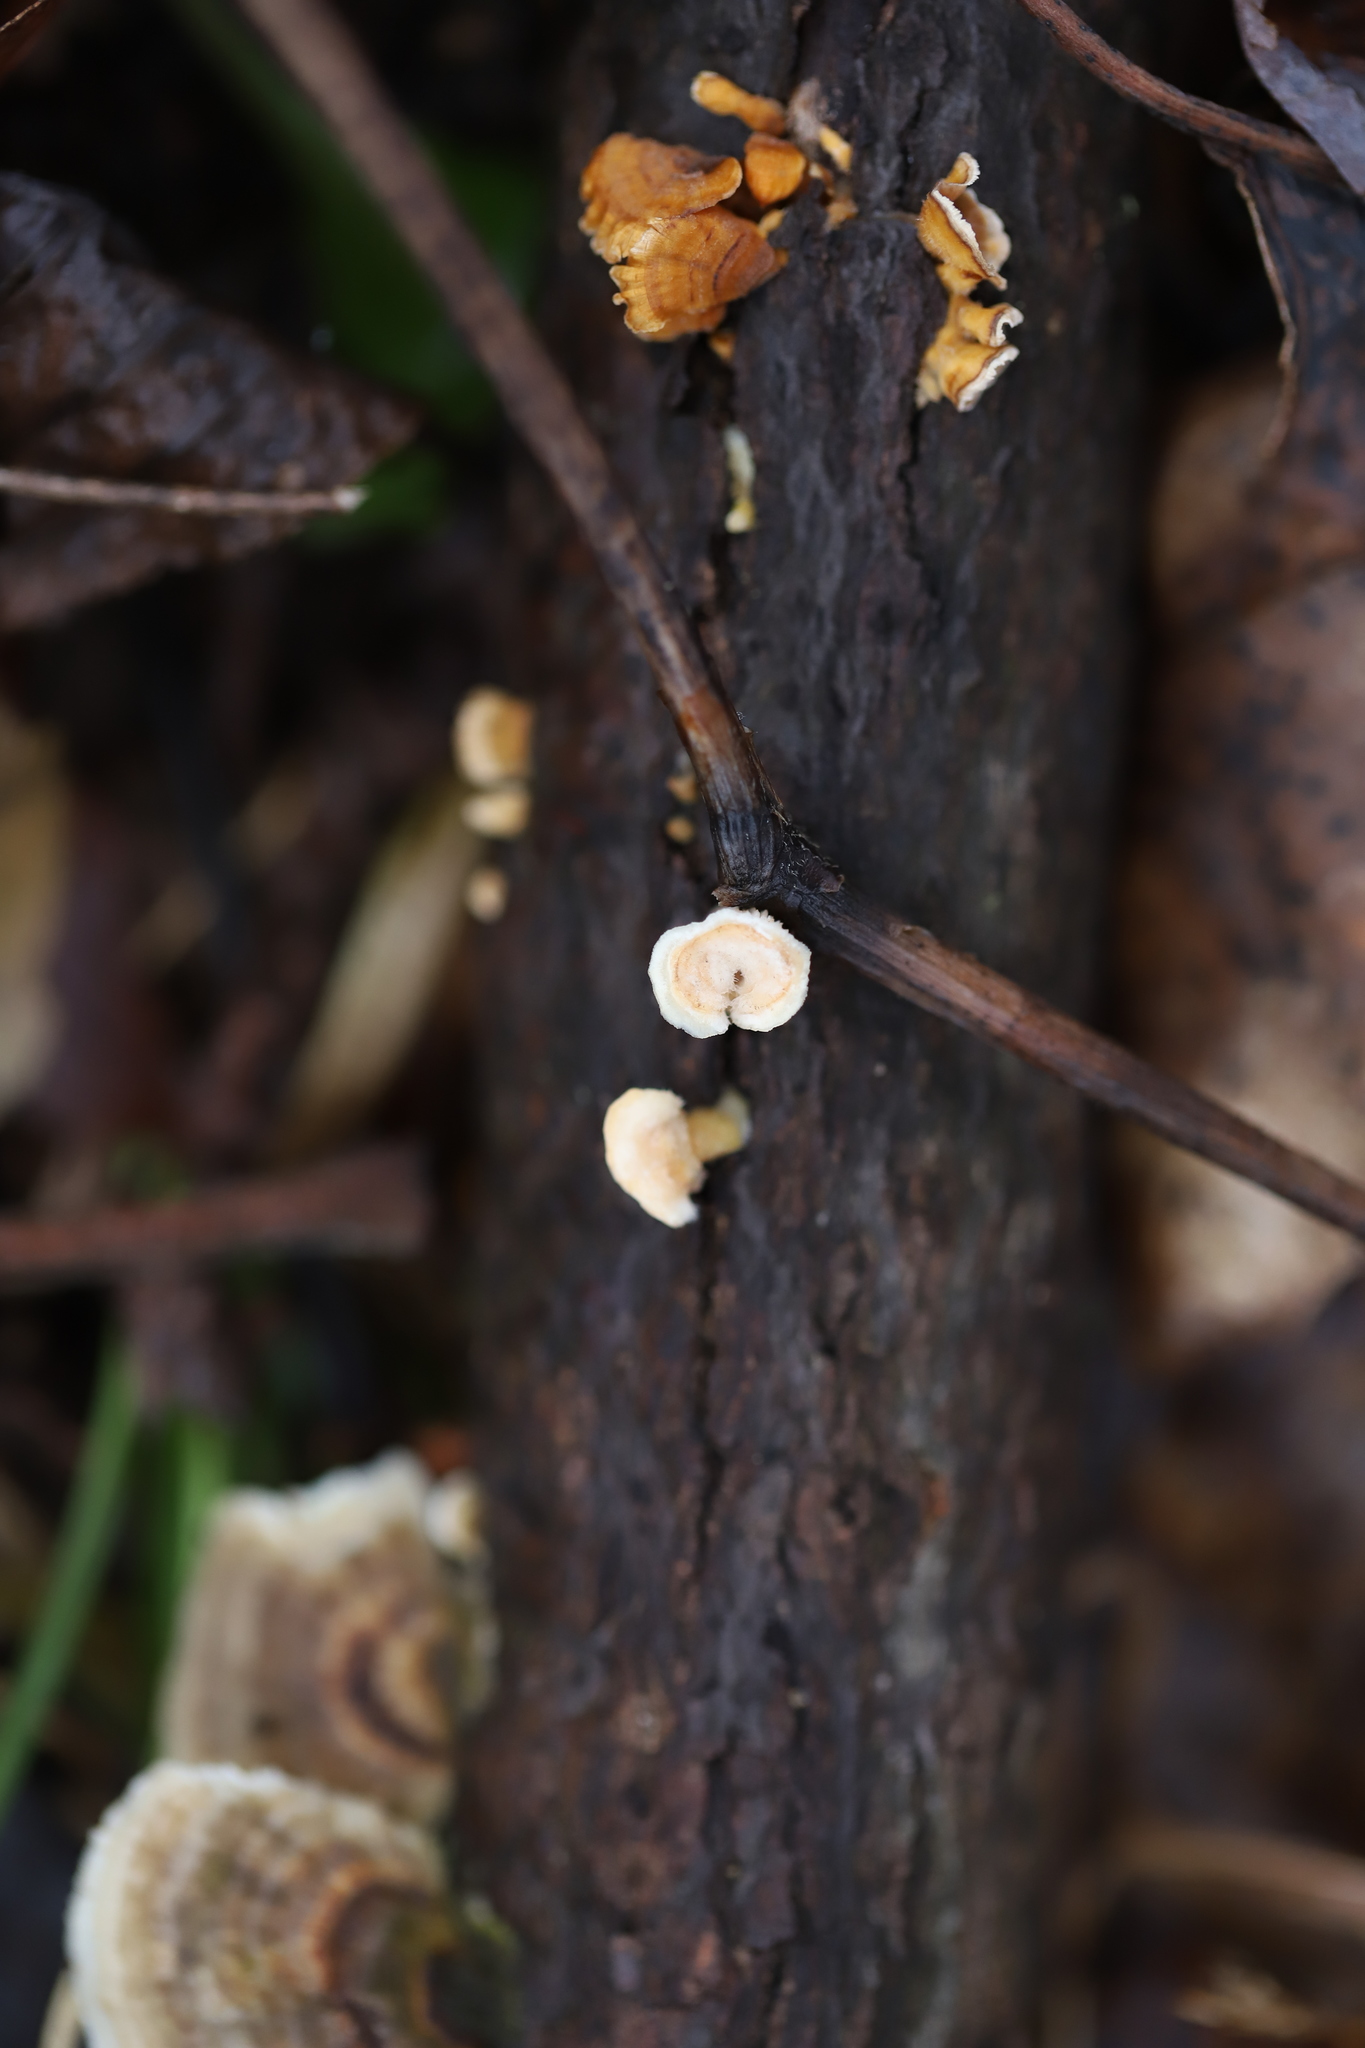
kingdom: Fungi
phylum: Basidiomycota
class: Agaricomycetes
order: Russulales
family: Stereaceae
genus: Stereum
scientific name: Stereum complicatum
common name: Crowded parchment
